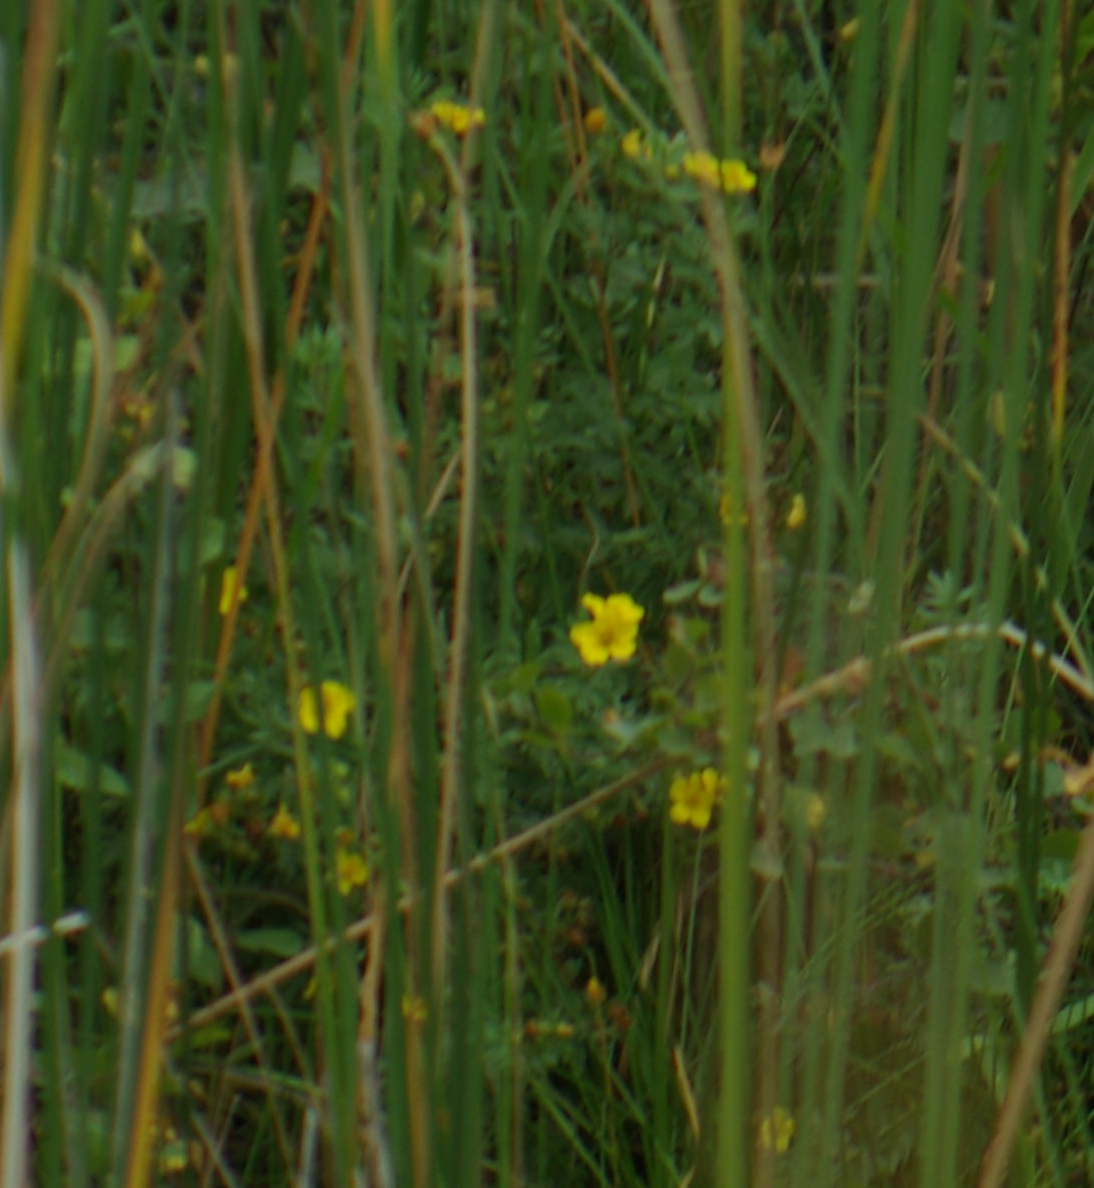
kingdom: Plantae
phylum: Tracheophyta
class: Magnoliopsida
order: Rosales
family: Rosaceae
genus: Dasiphora
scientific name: Dasiphora fruticosa
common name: Shrubby cinquefoil
